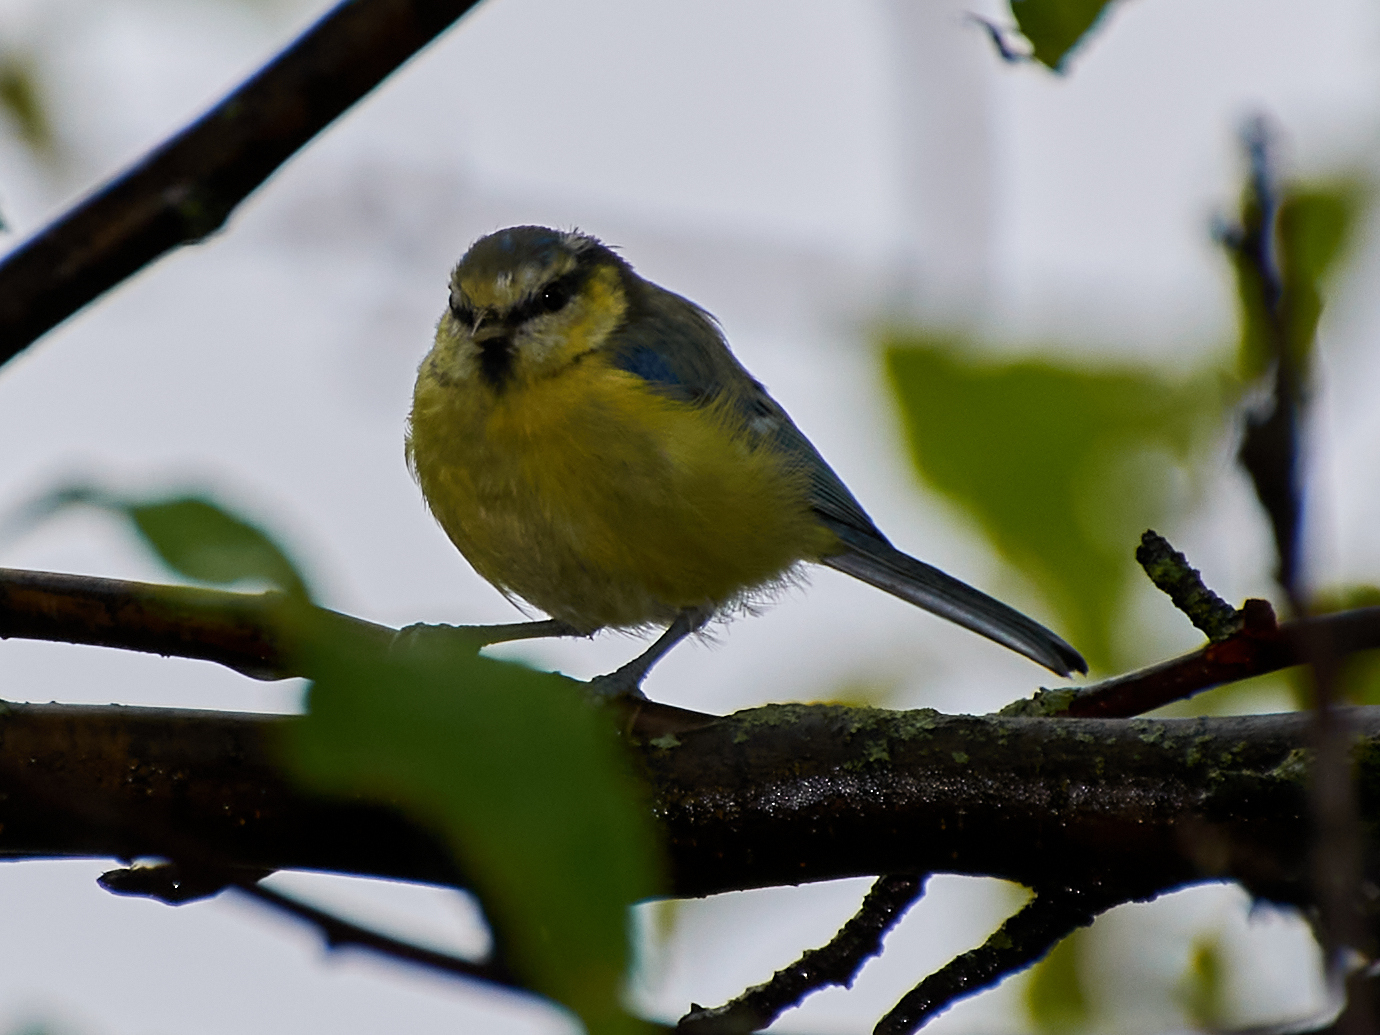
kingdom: Animalia
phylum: Chordata
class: Aves
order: Passeriformes
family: Paridae
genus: Cyanistes
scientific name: Cyanistes caeruleus
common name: Eurasian blue tit
